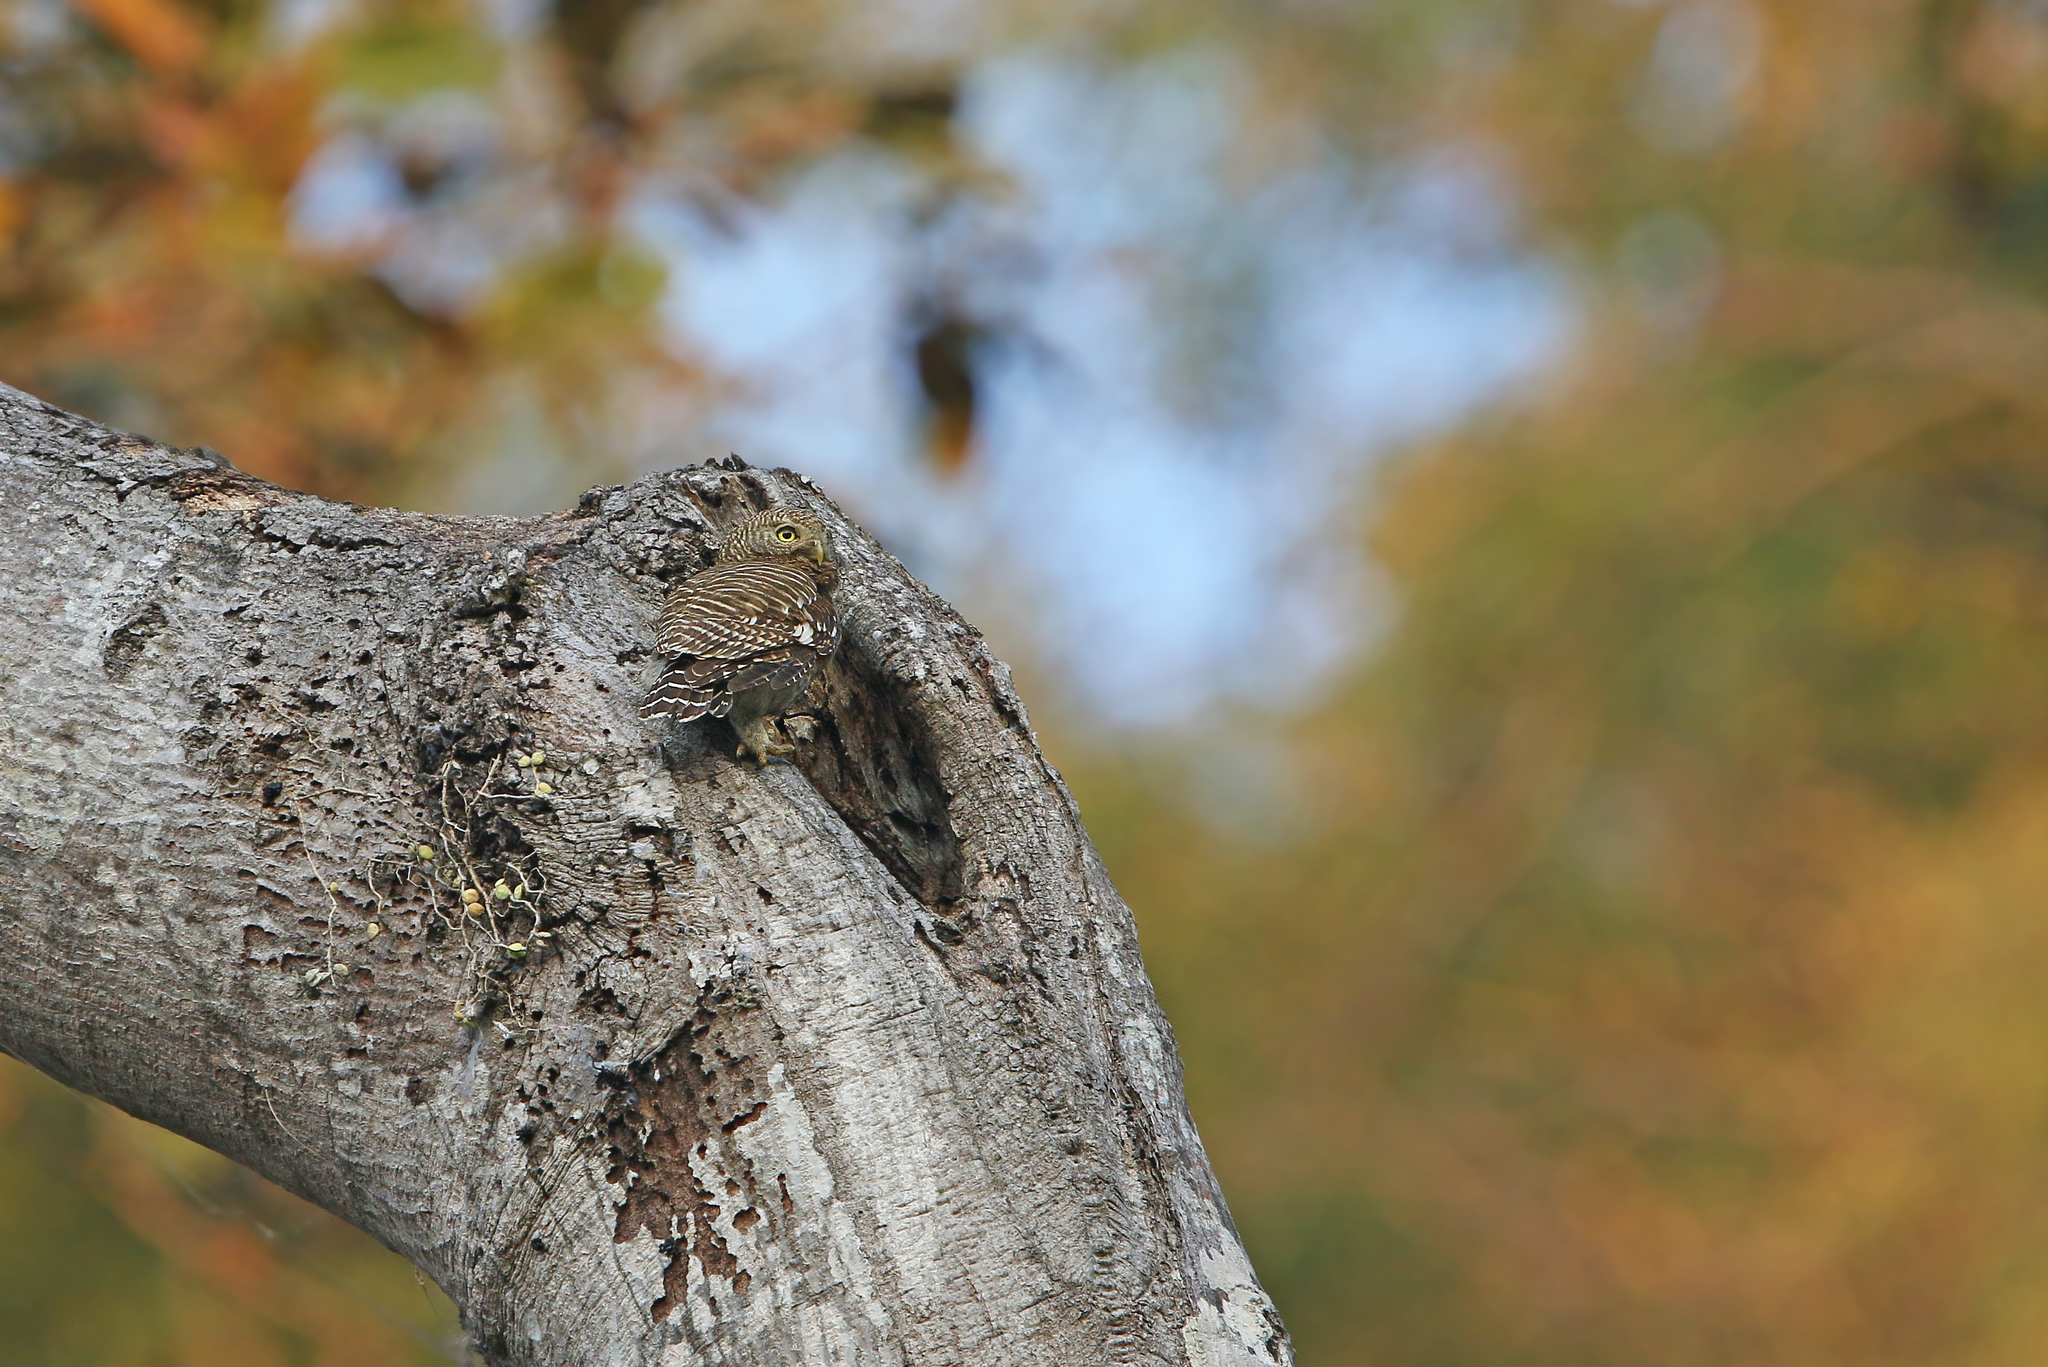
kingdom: Animalia
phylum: Chordata
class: Aves
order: Strigiformes
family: Strigidae
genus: Glaucidium
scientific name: Glaucidium cuculoides
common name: Asian barred owlet
